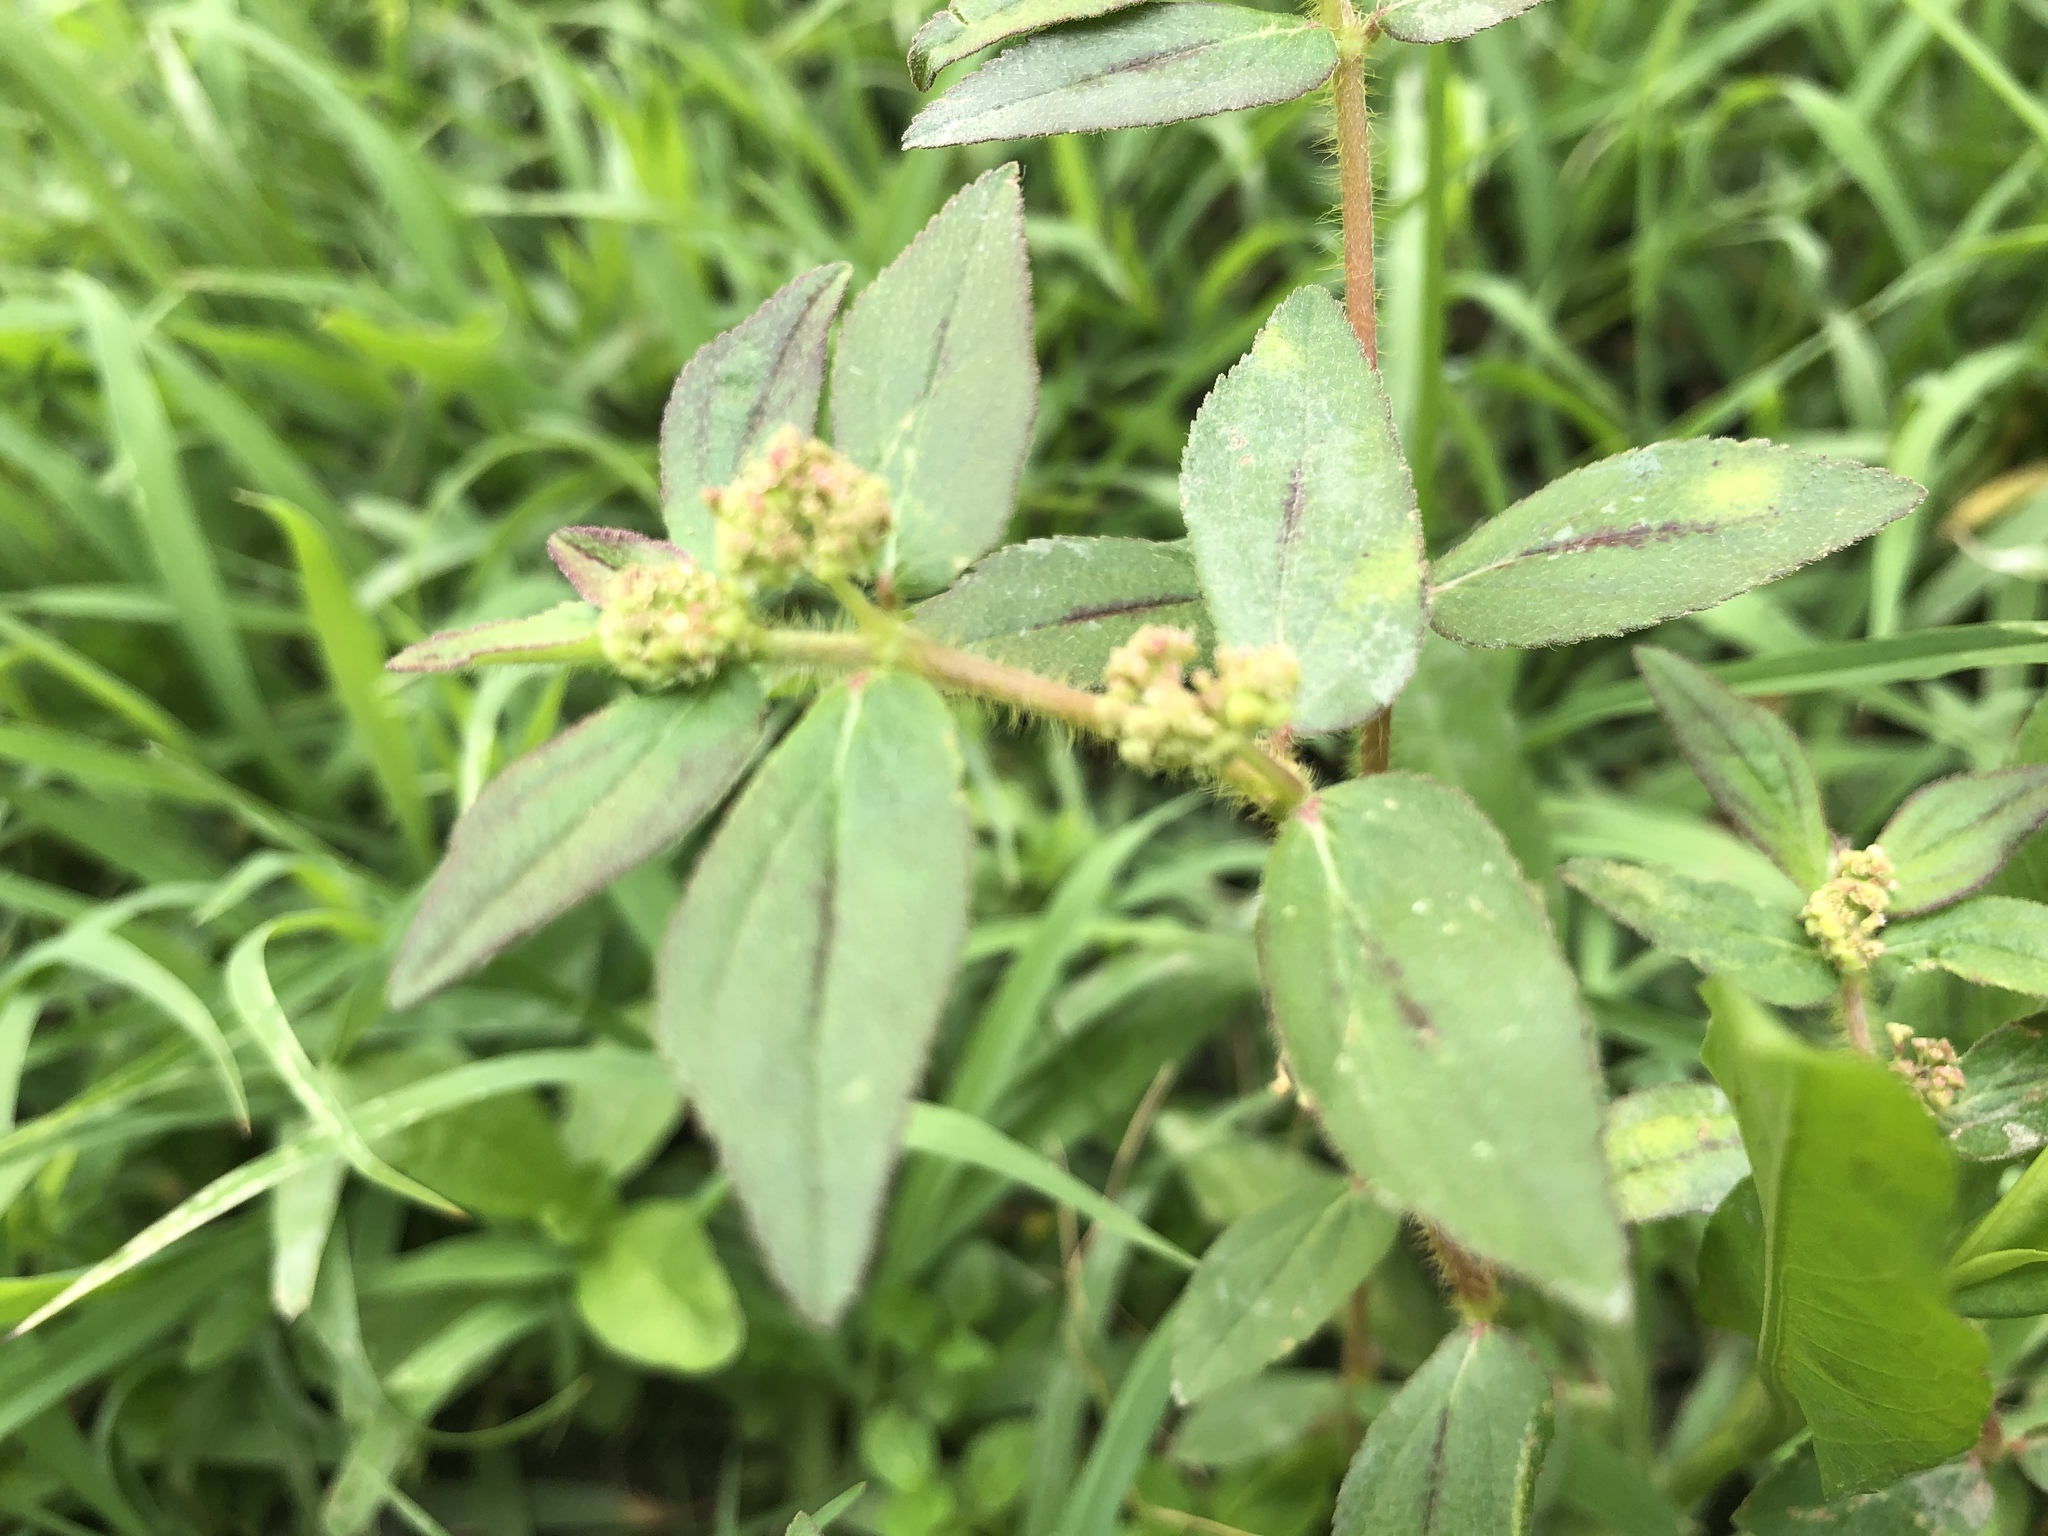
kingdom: Plantae
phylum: Tracheophyta
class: Magnoliopsida
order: Malpighiales
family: Euphorbiaceae
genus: Euphorbia
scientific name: Euphorbia hirta
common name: Pillpod sandmat
